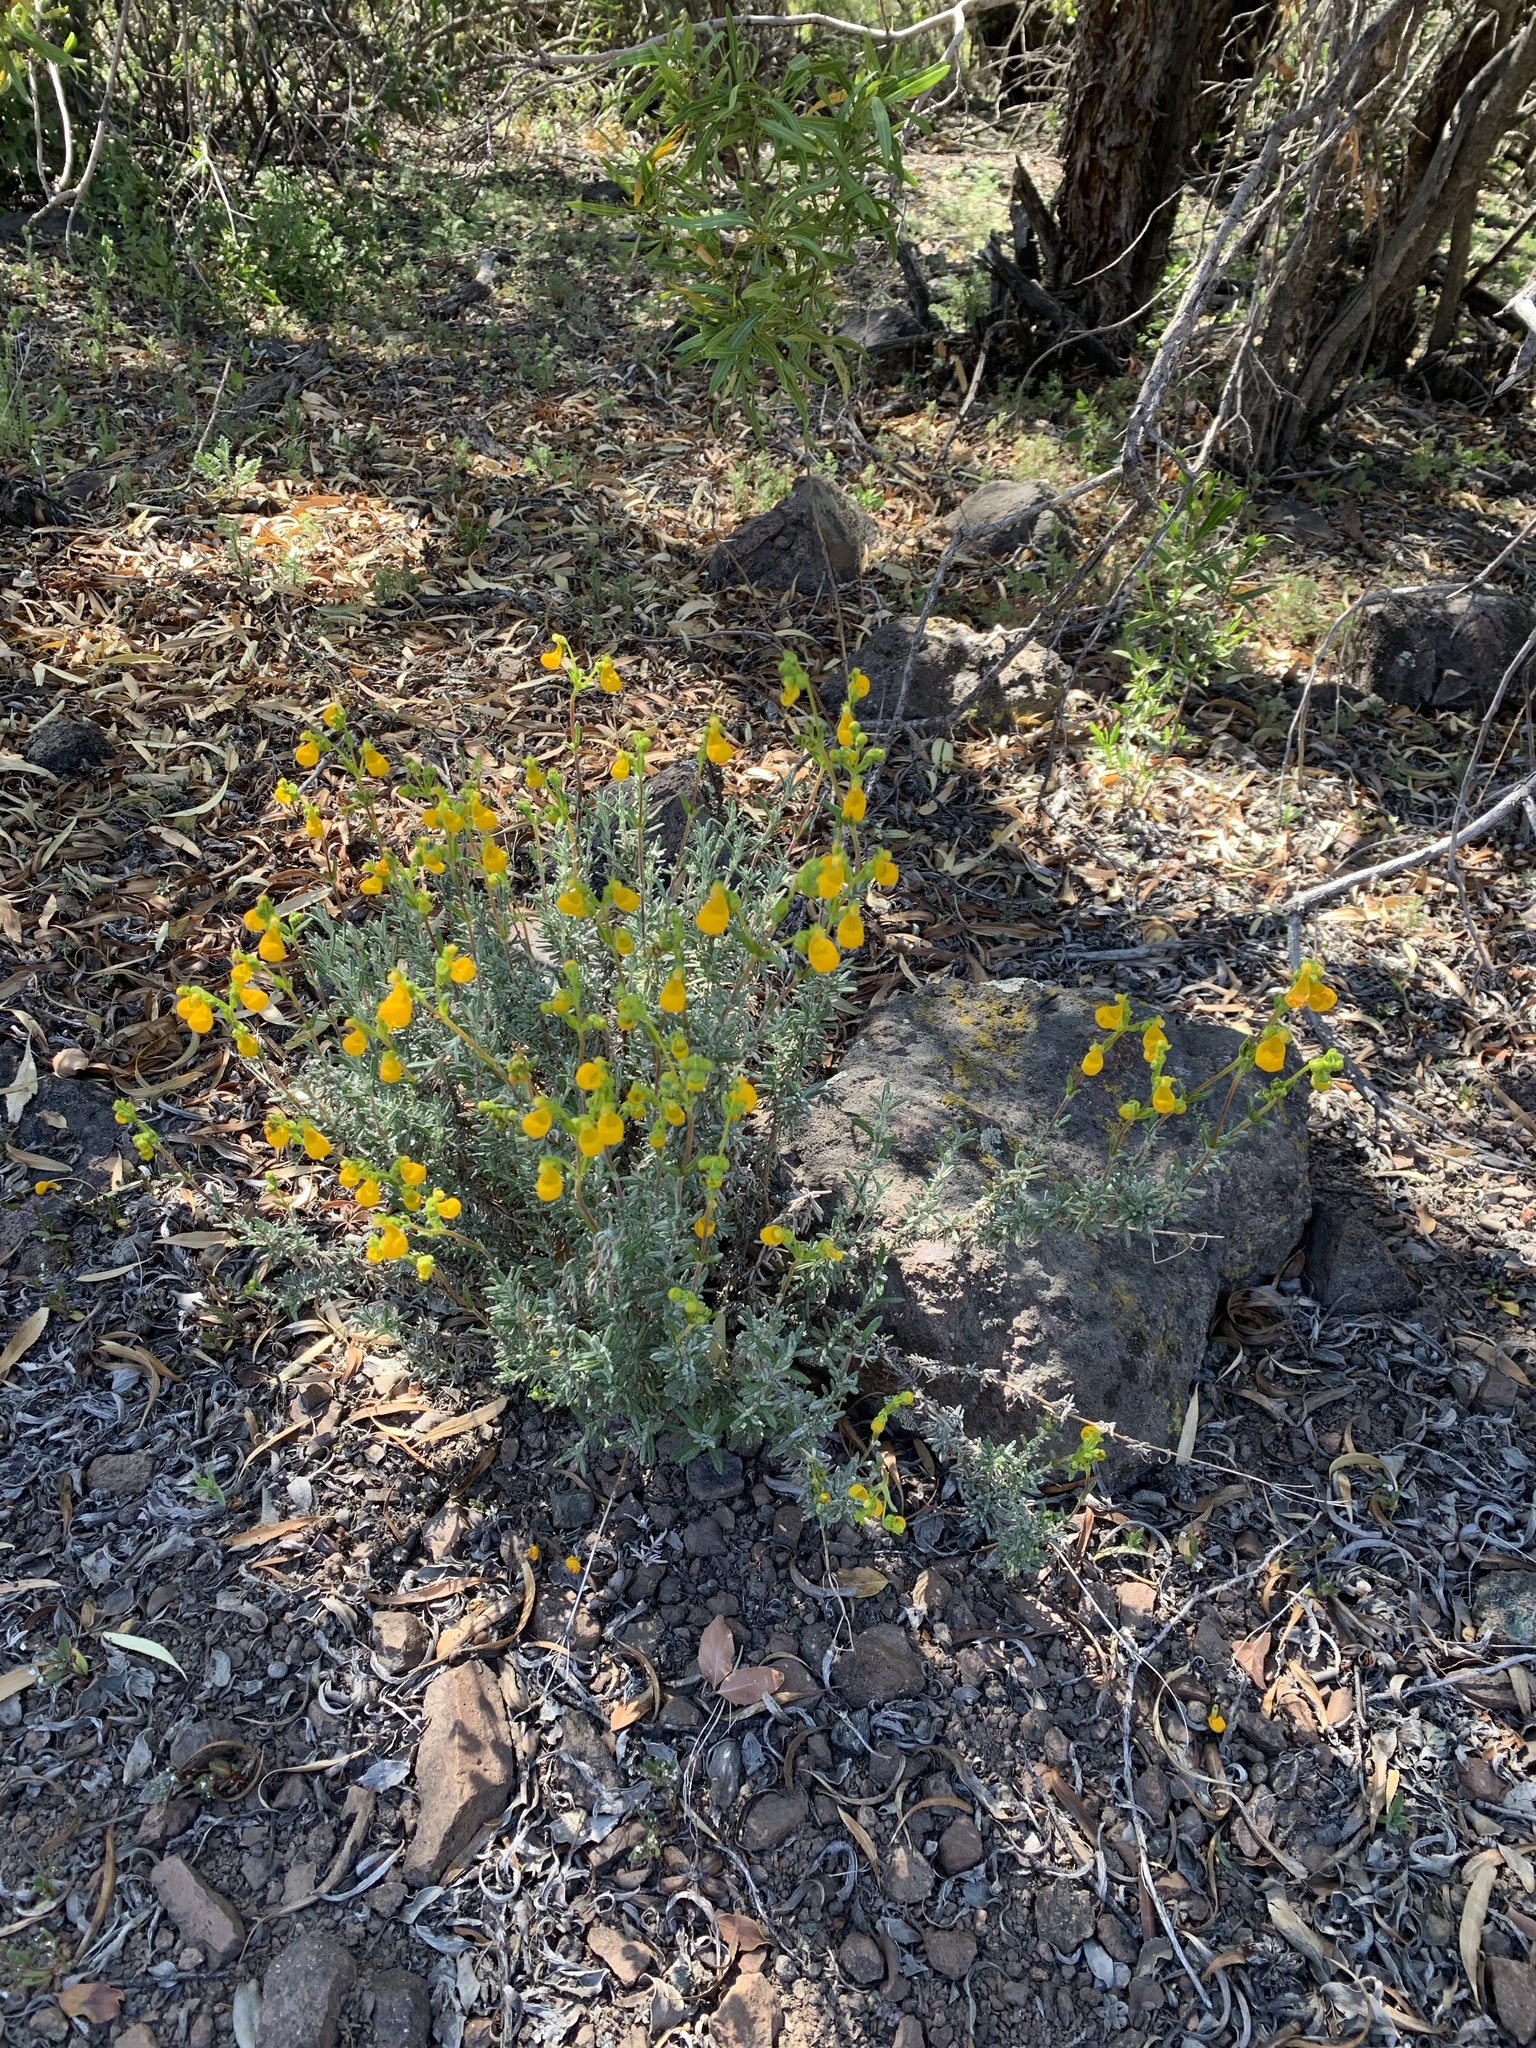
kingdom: Plantae
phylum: Tracheophyta
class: Magnoliopsida
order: Lamiales
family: Calceolariaceae
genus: Calceolaria
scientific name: Calceolaria segethii
